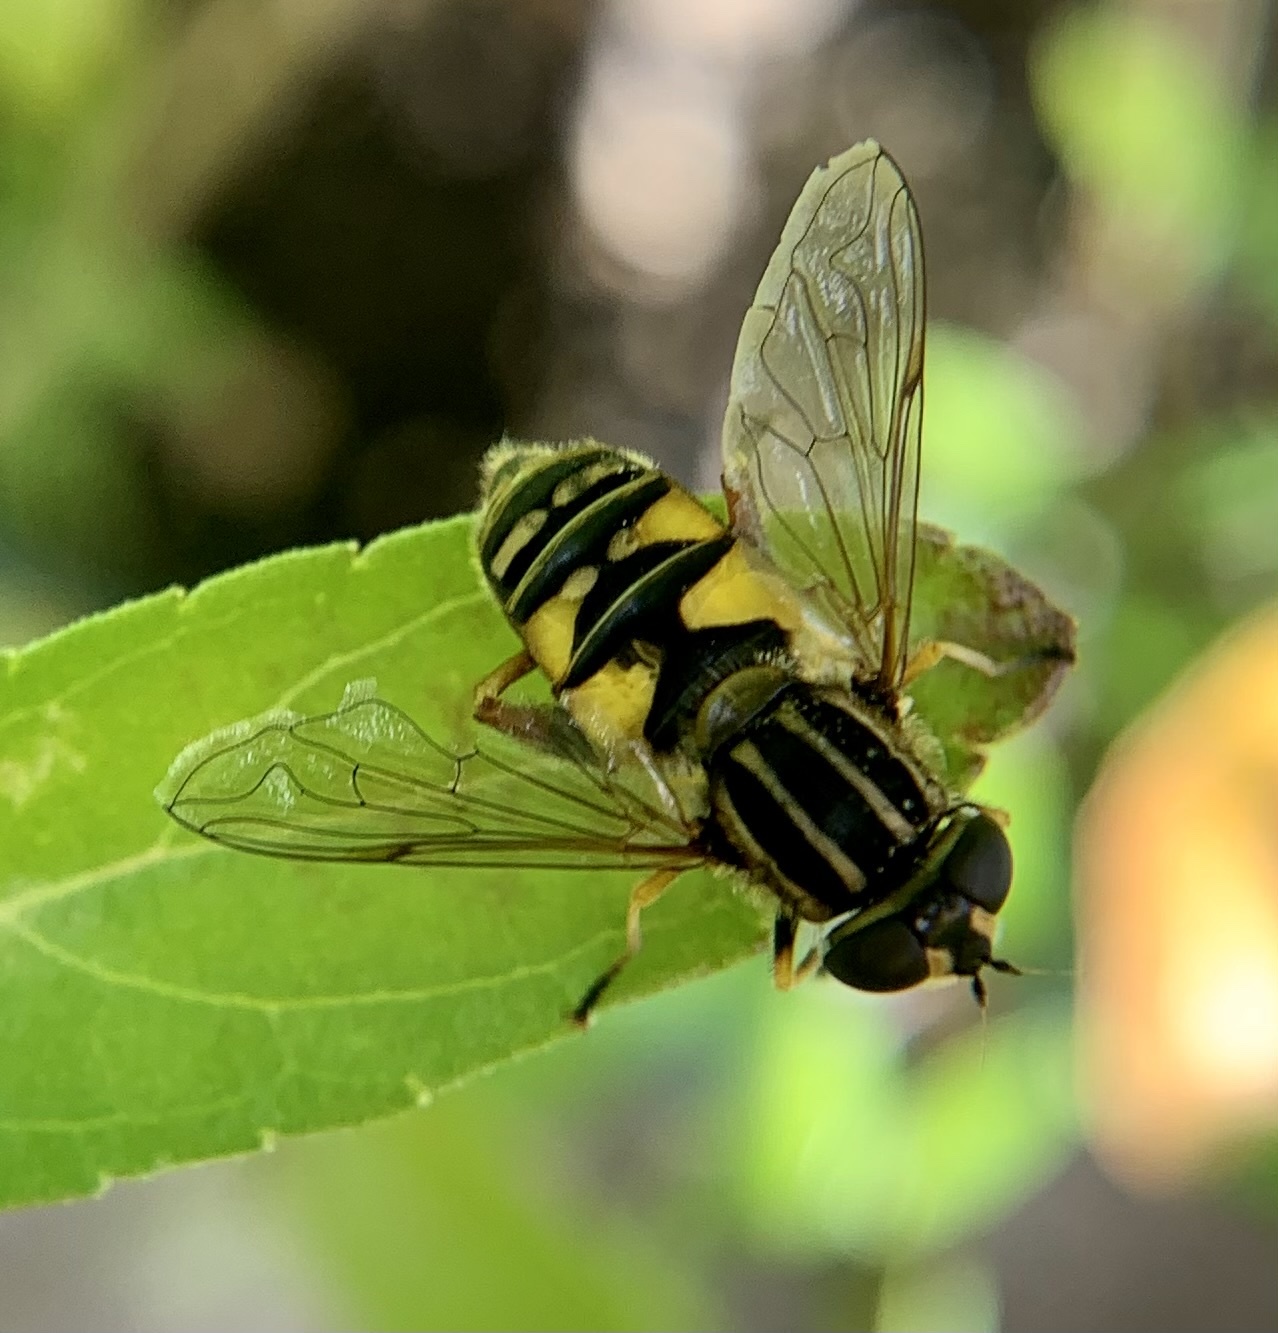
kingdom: Animalia
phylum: Arthropoda
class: Insecta
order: Diptera
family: Syrphidae
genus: Helophilus
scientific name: Helophilus pendulus
